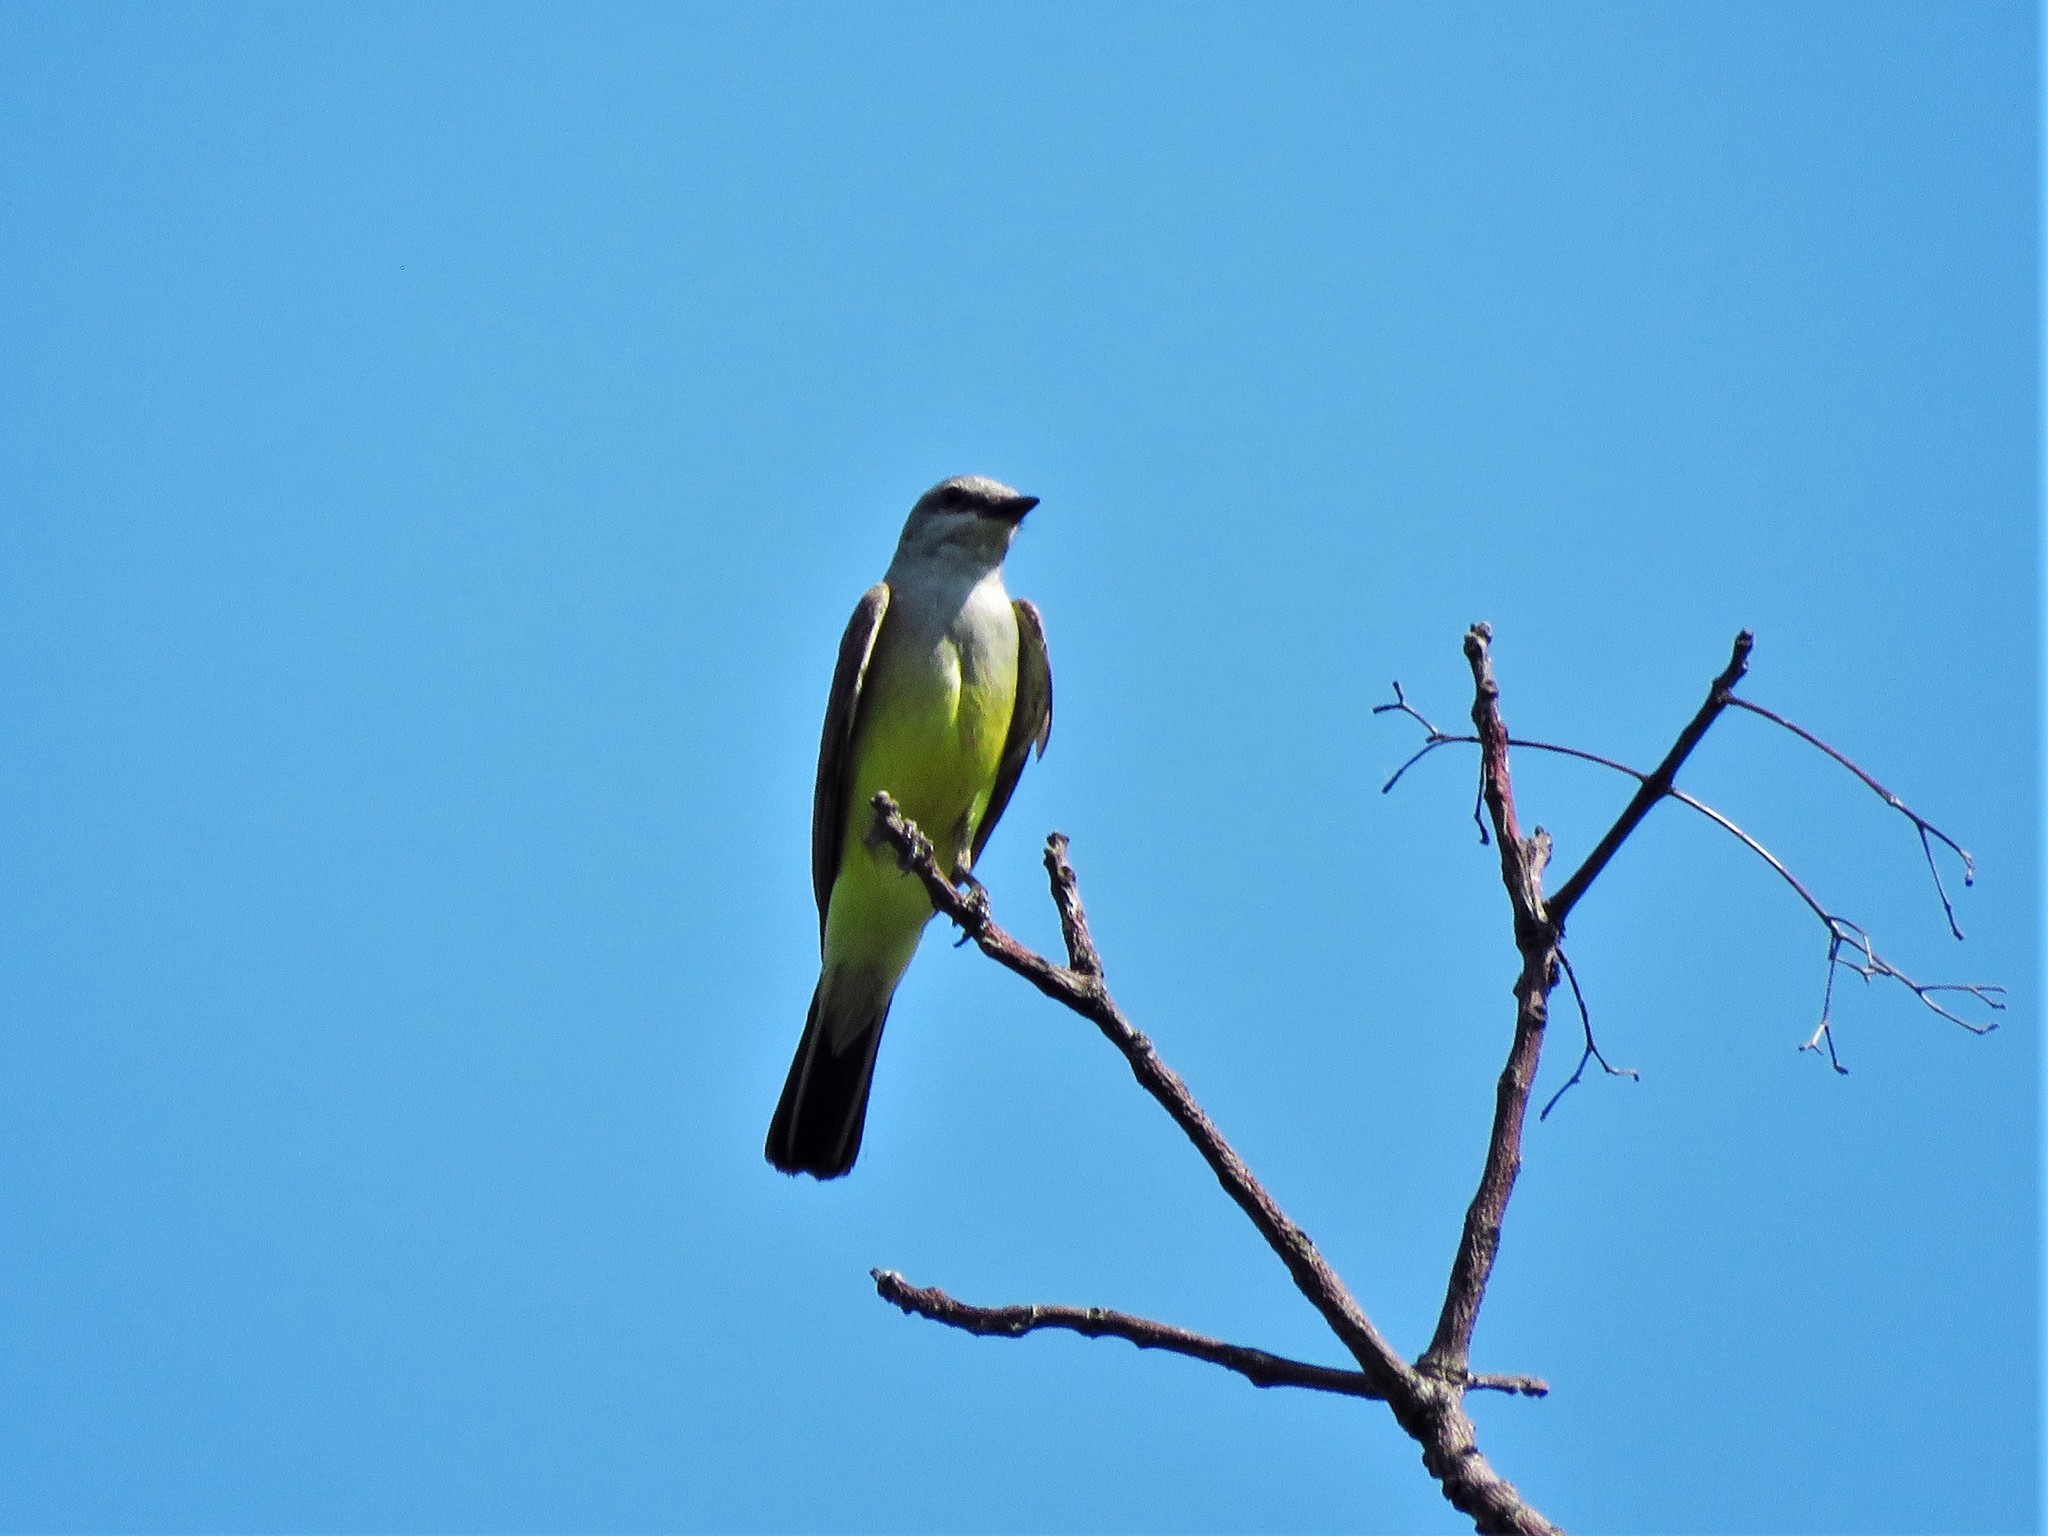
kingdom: Animalia
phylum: Chordata
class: Aves
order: Passeriformes
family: Tyrannidae
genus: Tyrannus
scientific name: Tyrannus verticalis
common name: Western kingbird
